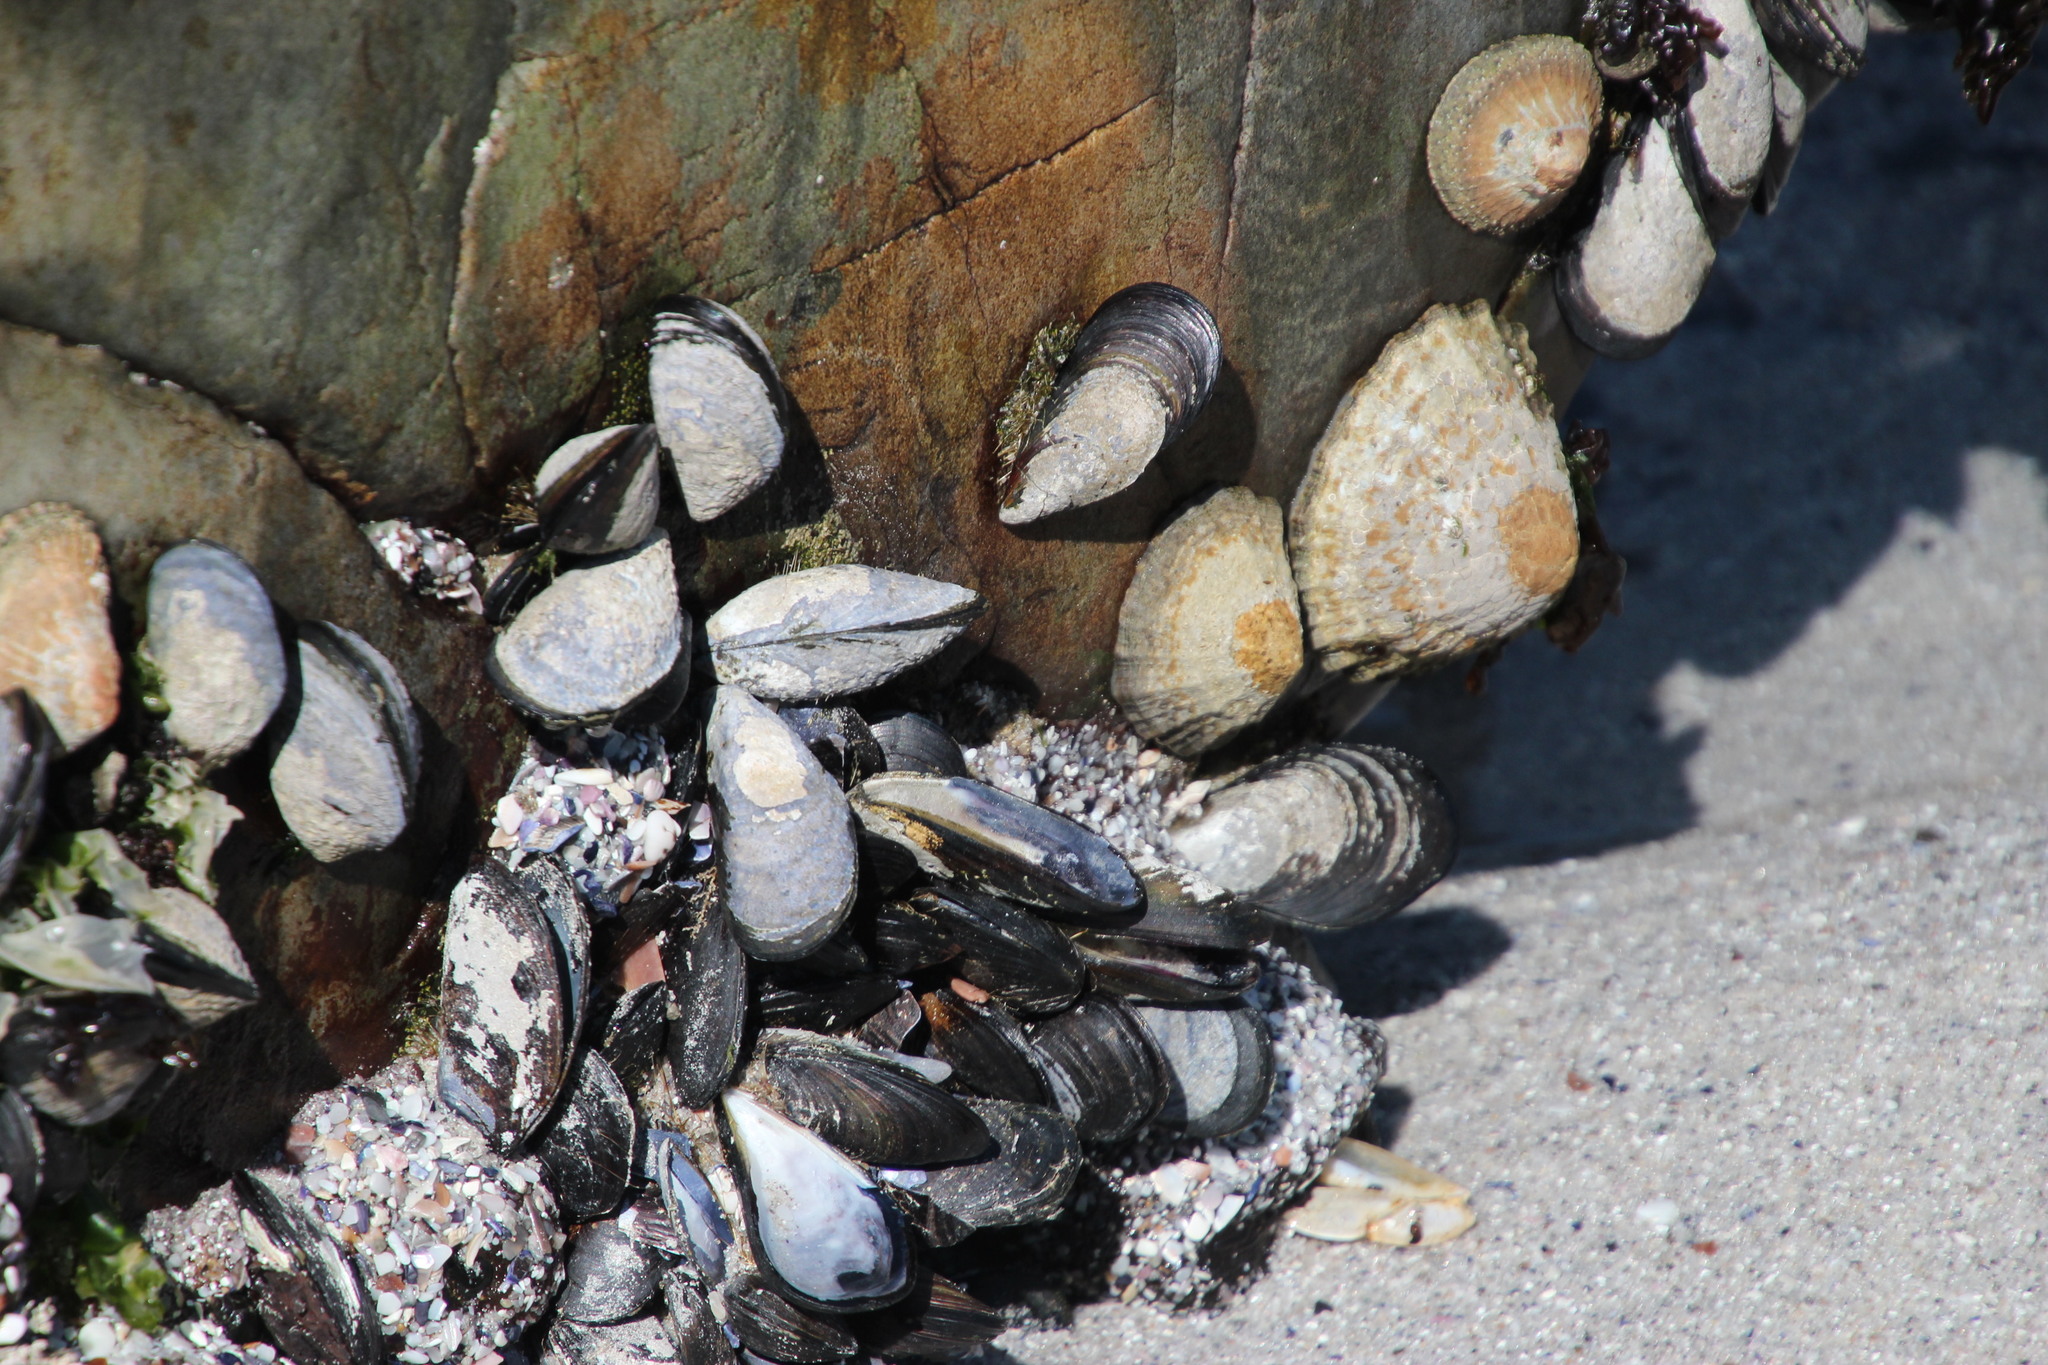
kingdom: Animalia
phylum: Mollusca
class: Bivalvia
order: Mytilida
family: Mytilidae
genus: Mytilus
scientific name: Mytilus galloprovincialis
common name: Mediterranean mussel
